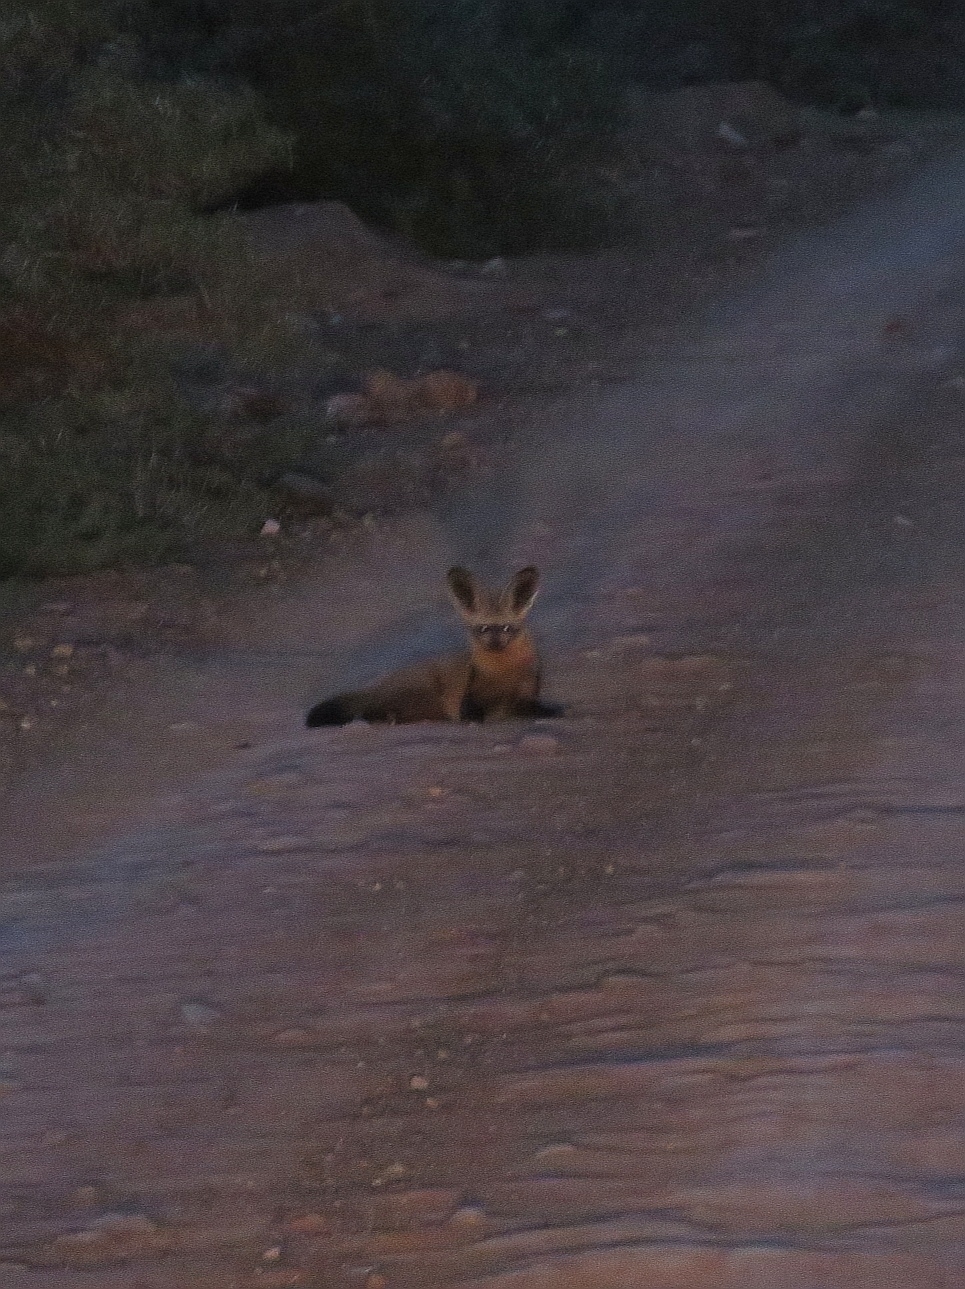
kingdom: Animalia
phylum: Chordata
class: Mammalia
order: Carnivora
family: Canidae
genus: Otocyon
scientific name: Otocyon megalotis
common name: Bat-eared fox
